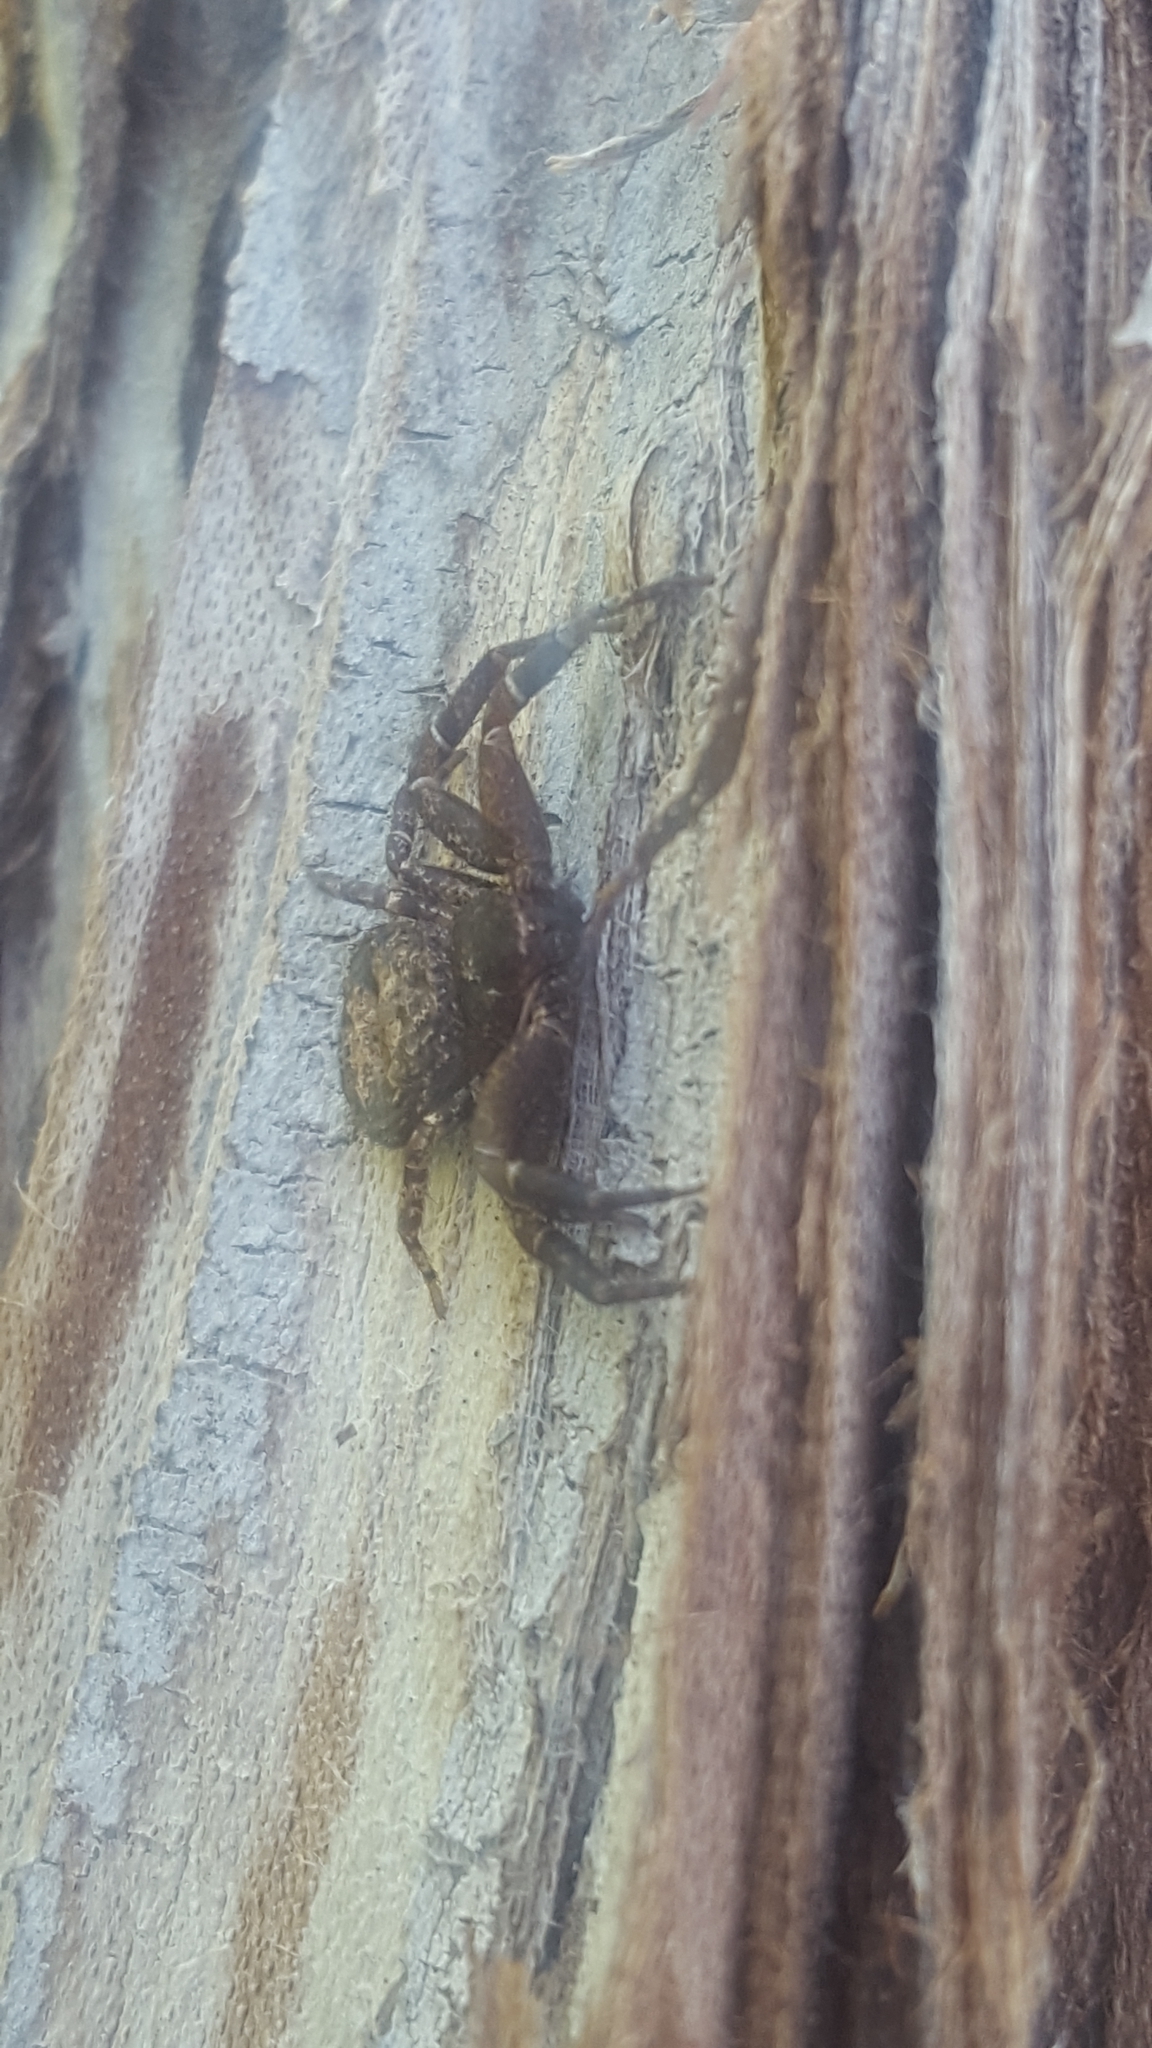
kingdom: Animalia
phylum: Arthropoda
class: Arachnida
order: Araneae
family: Thomisidae
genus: Bassaniana
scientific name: Bassaniana utahensis
